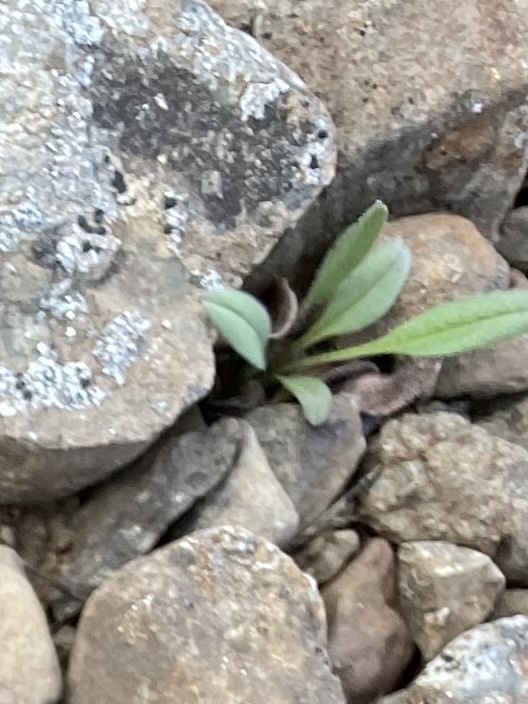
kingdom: Plantae
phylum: Tracheophyta
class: Magnoliopsida
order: Boraginales
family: Boraginaceae
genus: Myosotis
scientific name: Myosotis asiatica
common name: Asian forget-me-not
